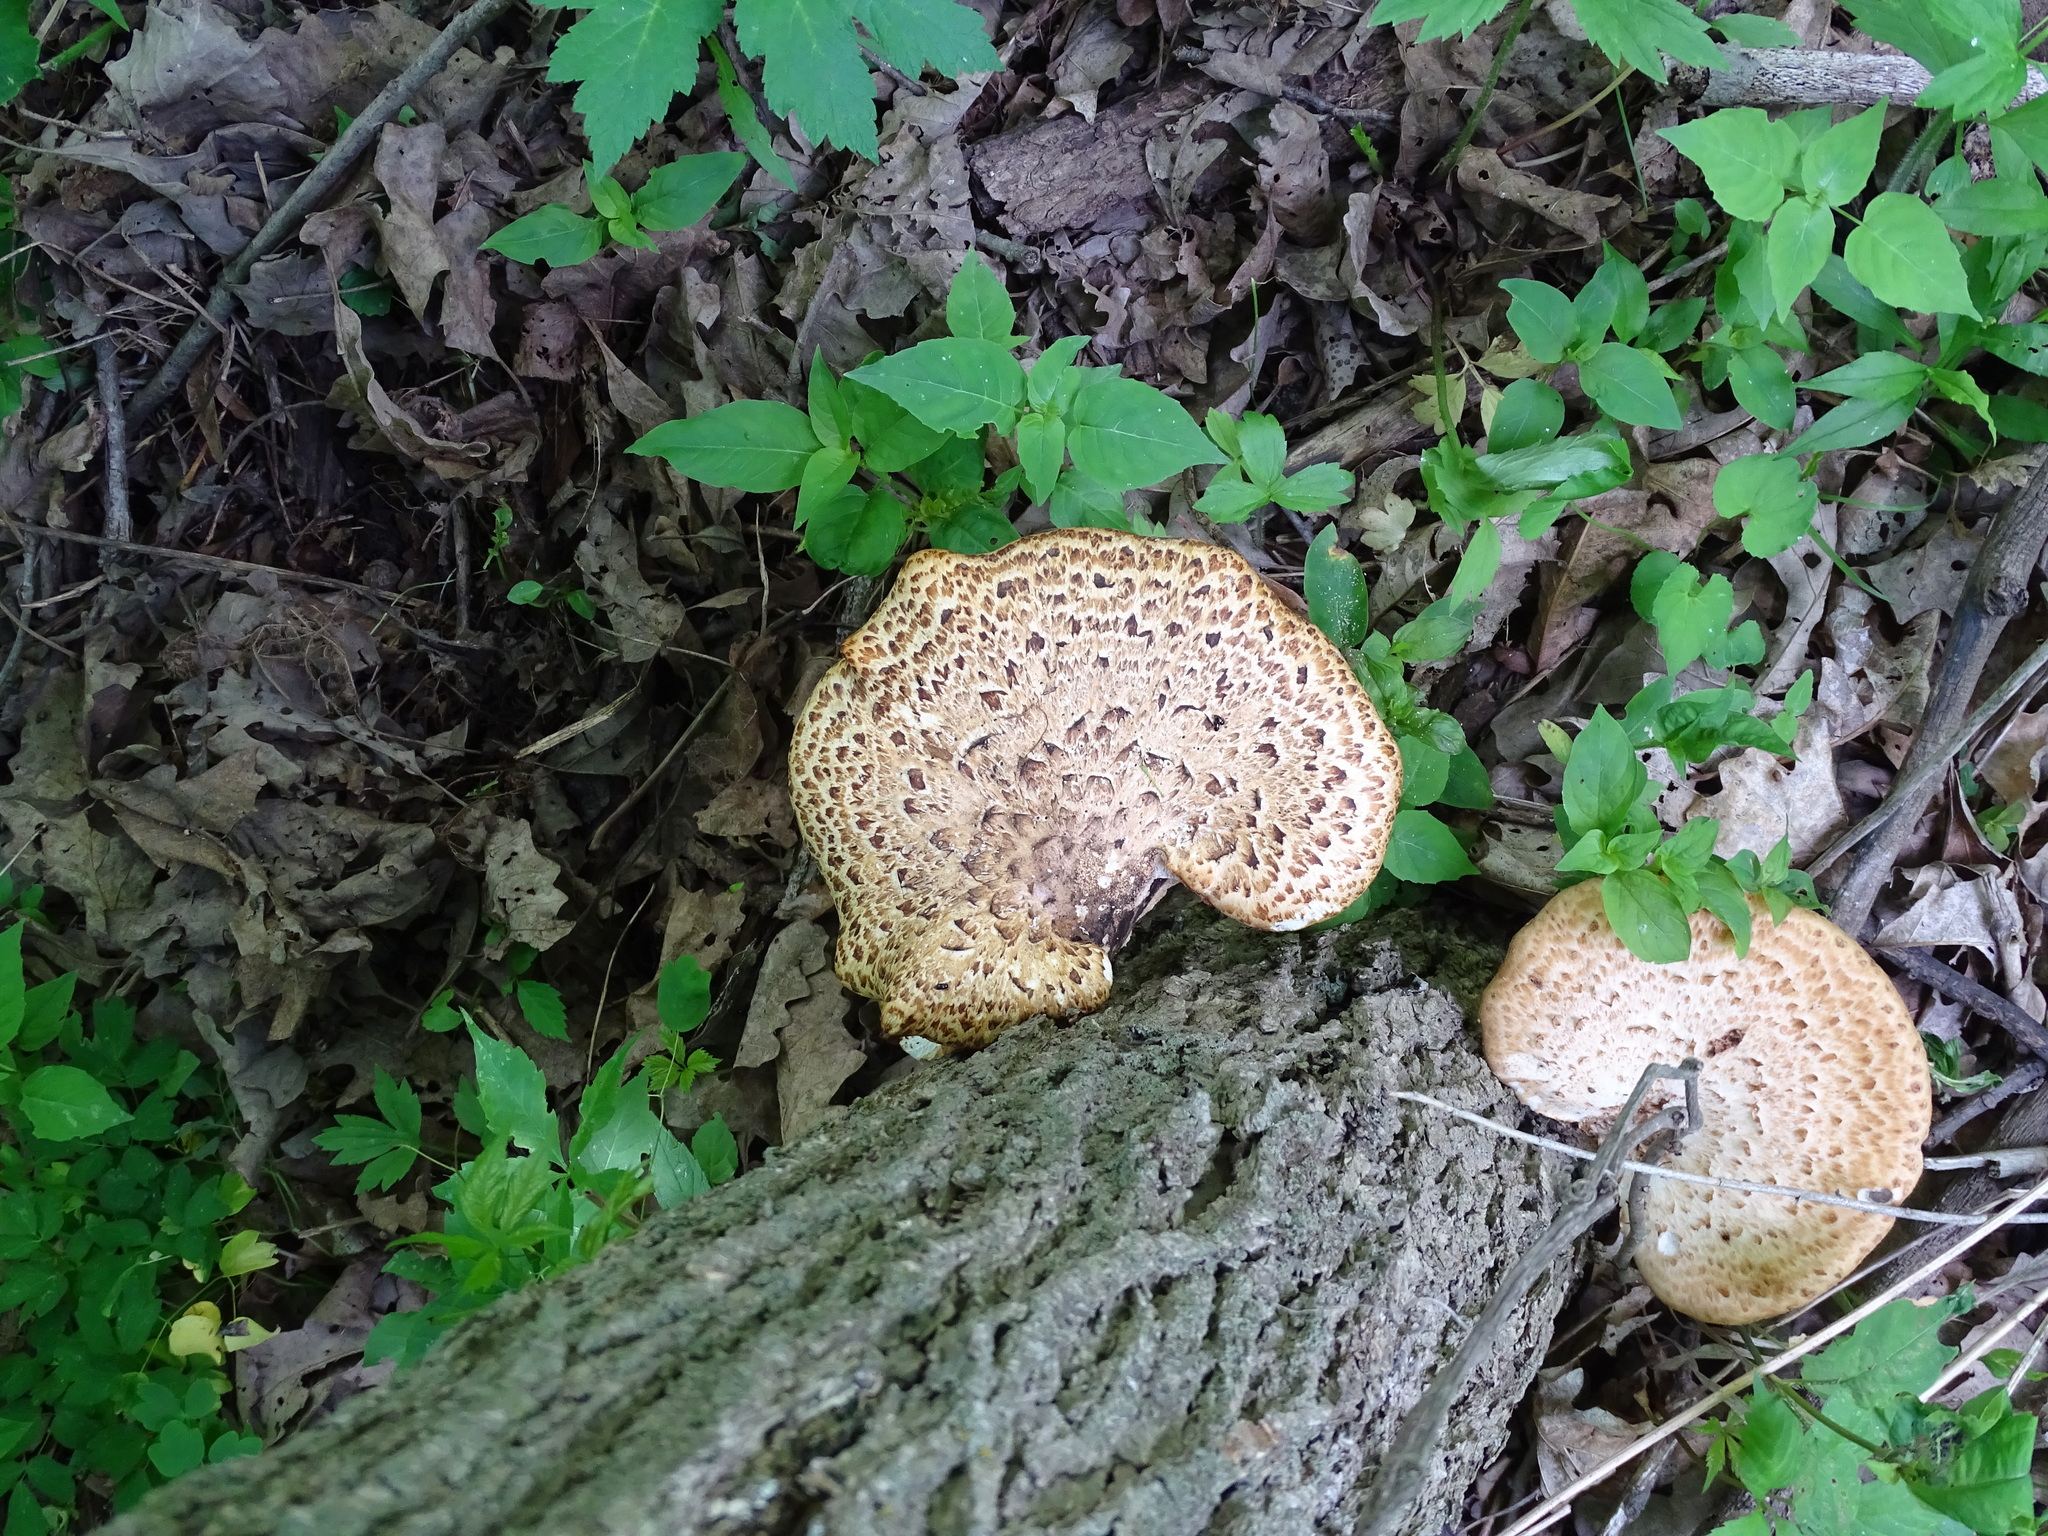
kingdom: Fungi
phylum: Basidiomycota
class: Agaricomycetes
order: Polyporales
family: Polyporaceae
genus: Cerioporus
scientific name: Cerioporus squamosus
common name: Dryad's saddle
